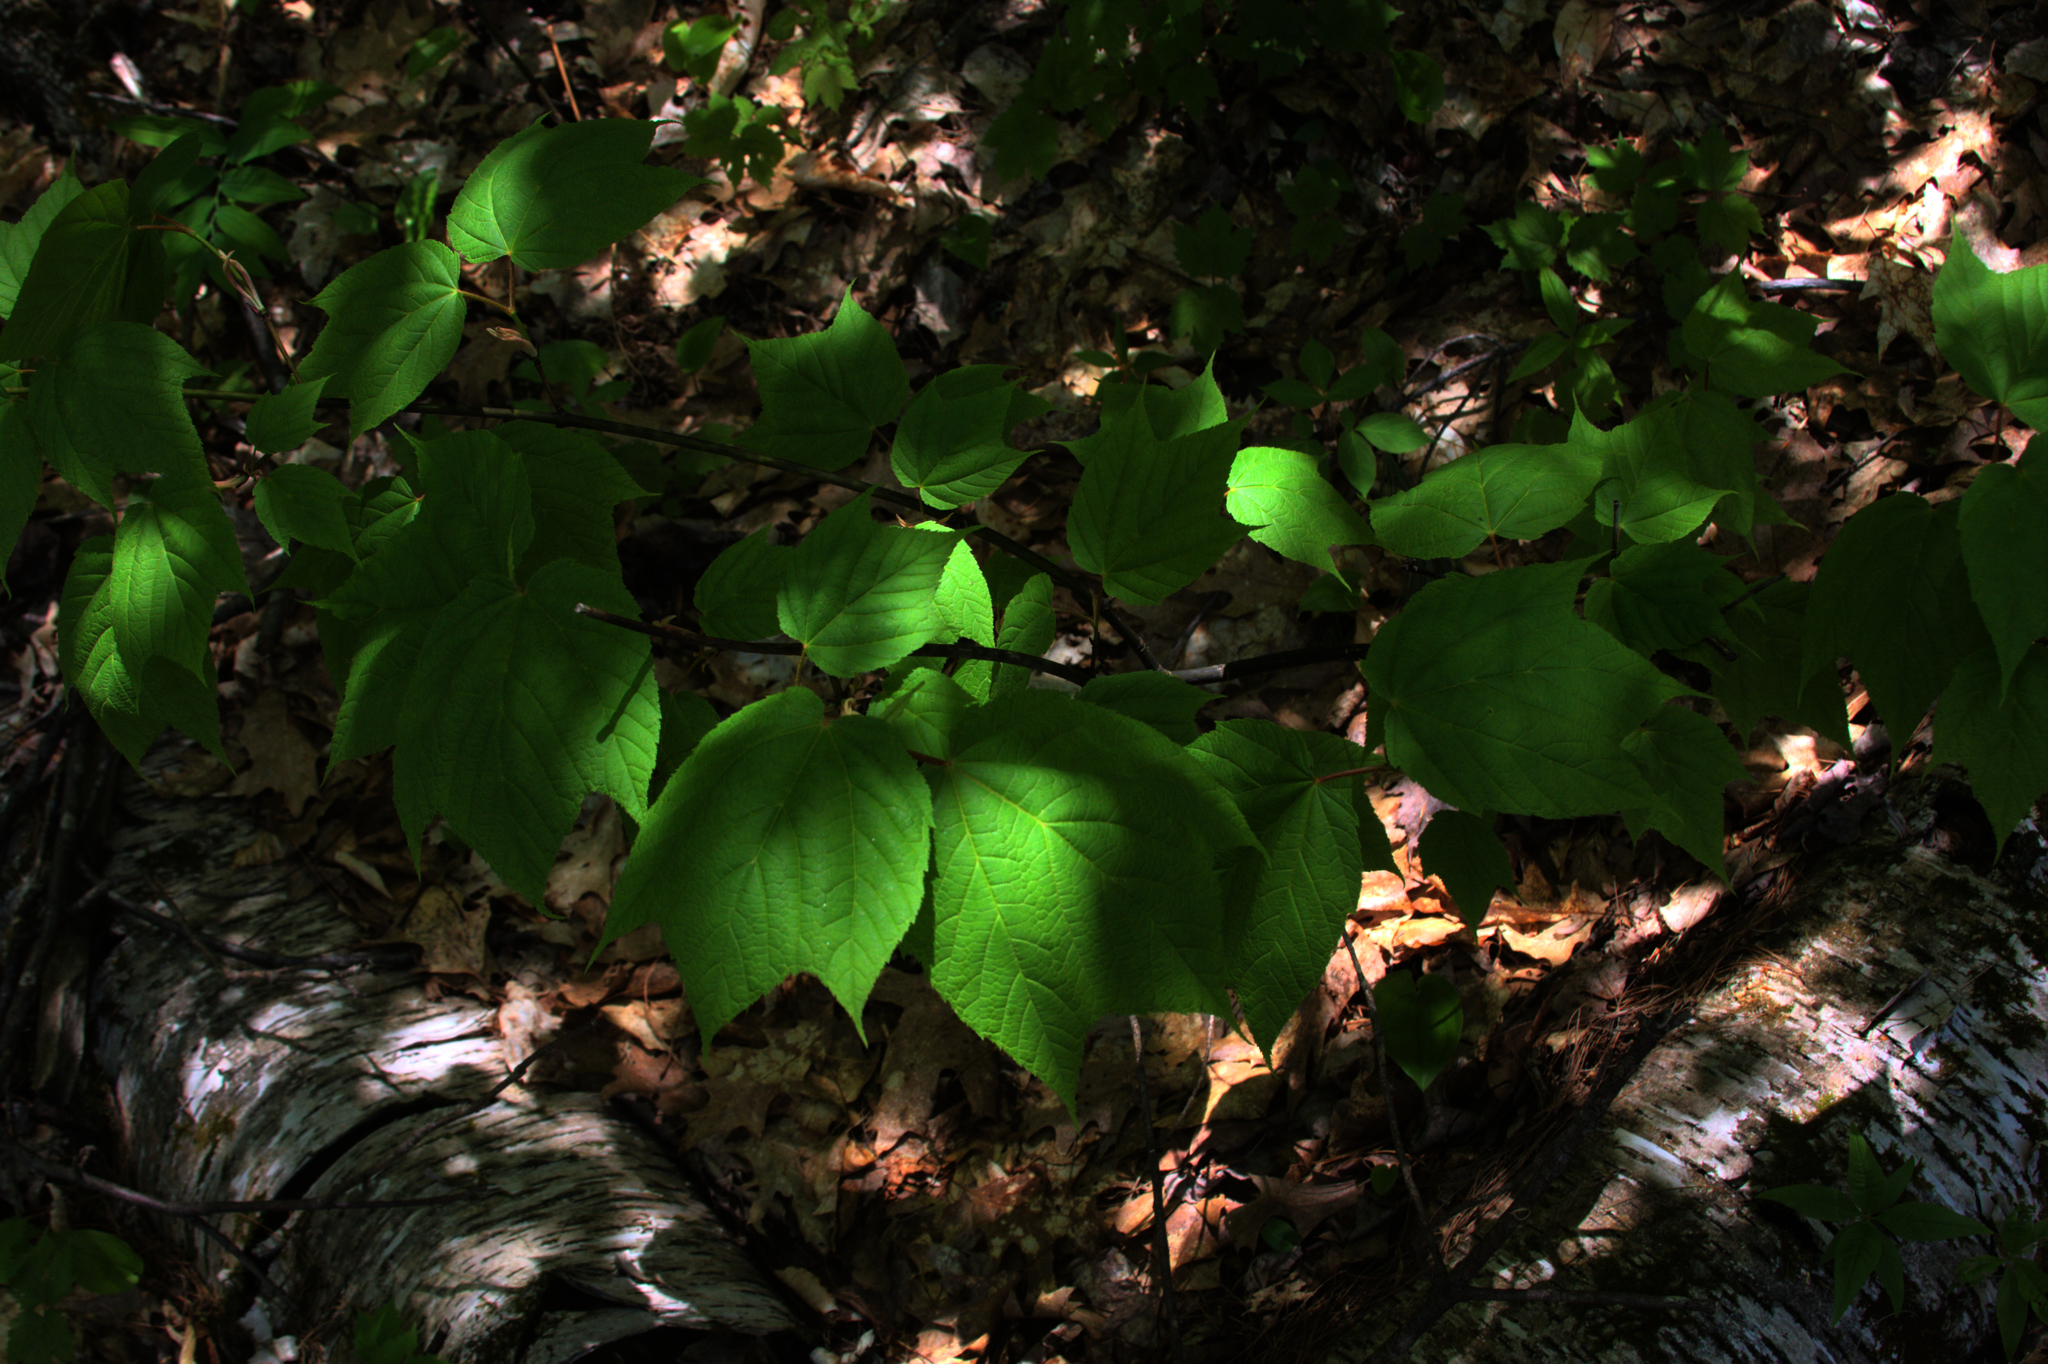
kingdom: Plantae
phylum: Tracheophyta
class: Magnoliopsida
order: Sapindales
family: Sapindaceae
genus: Acer
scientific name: Acer pensylvanicum
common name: Moosewood
